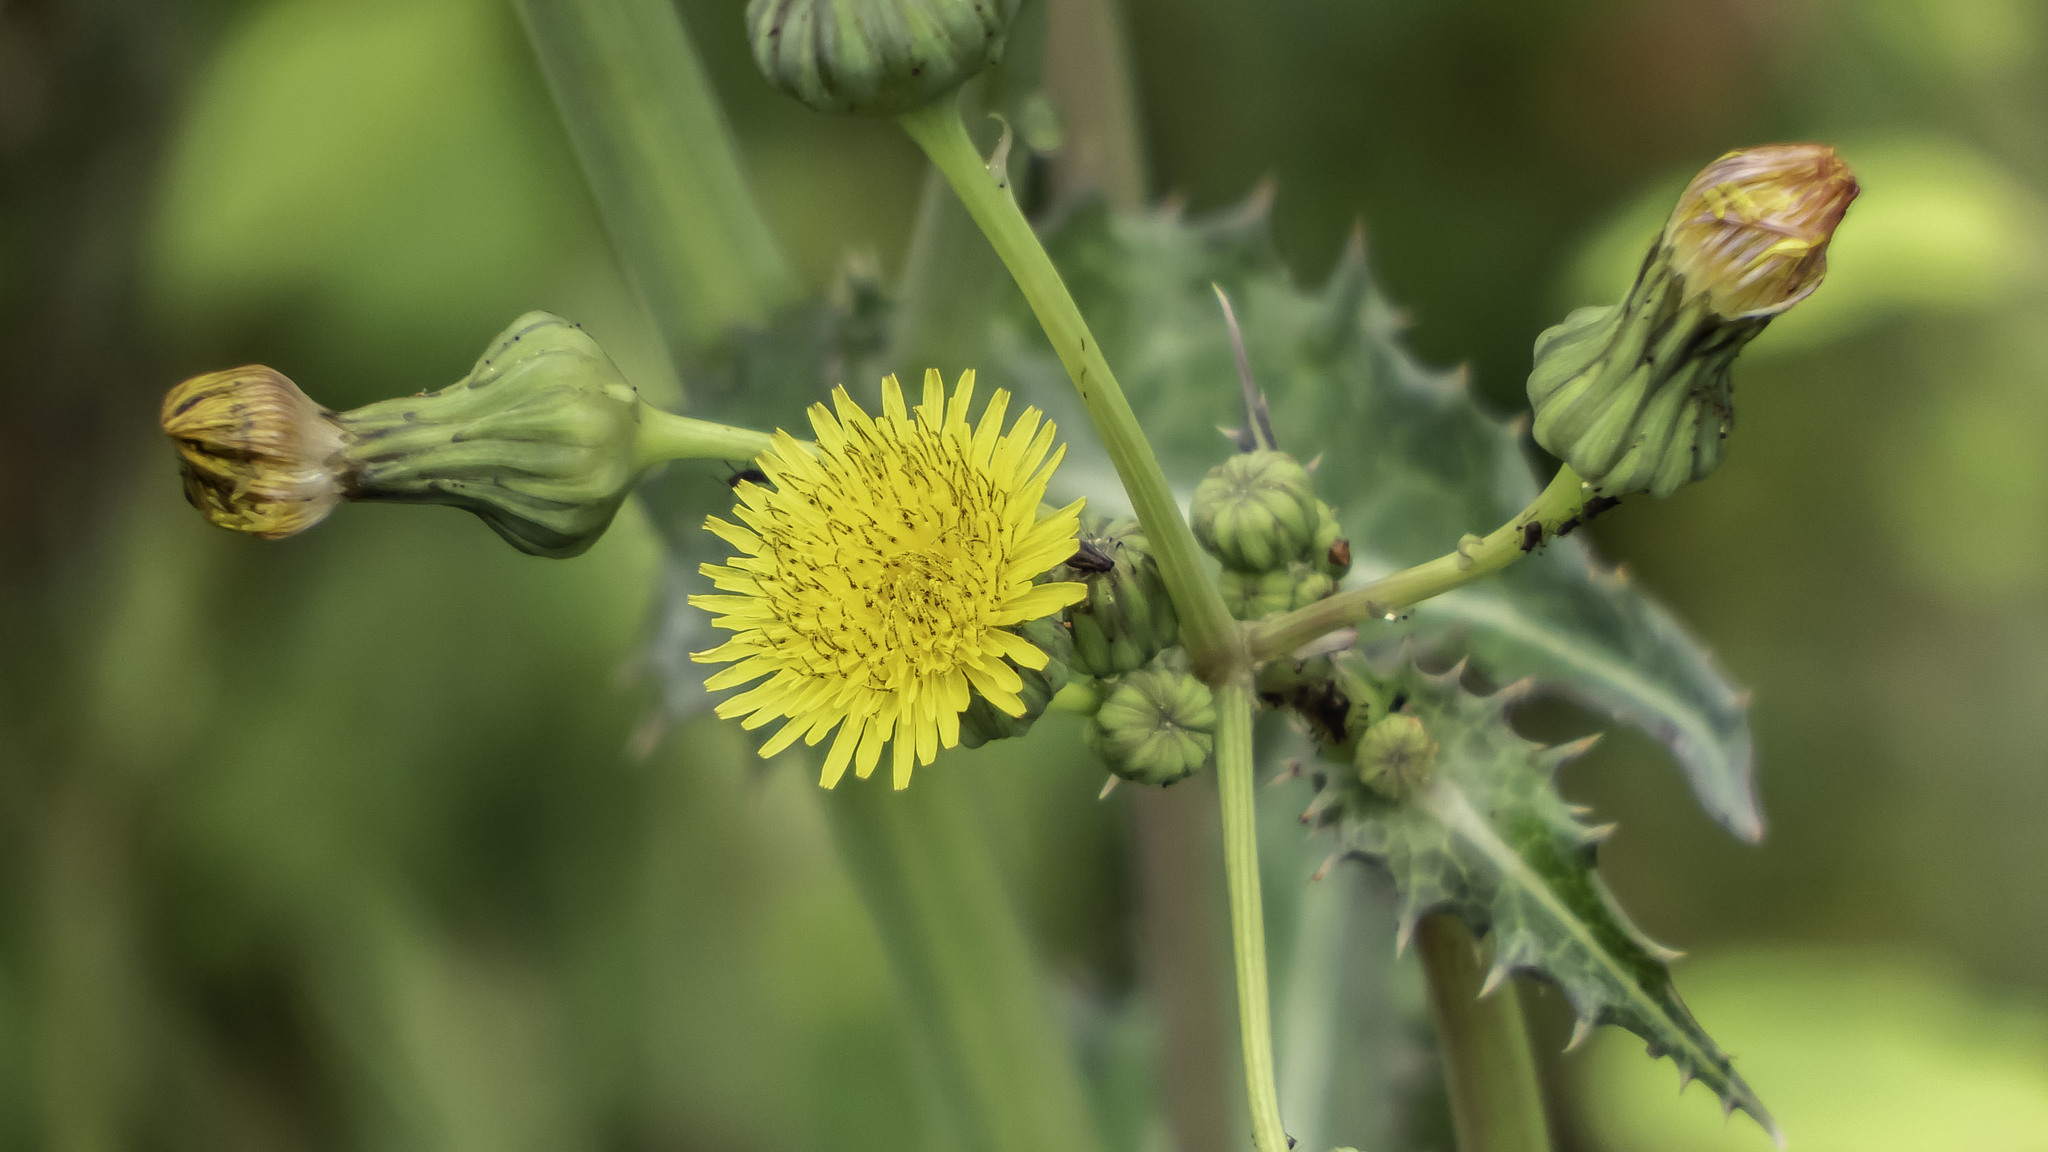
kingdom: Plantae
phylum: Tracheophyta
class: Magnoliopsida
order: Asterales
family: Asteraceae
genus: Sonchus
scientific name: Sonchus asper
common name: Prickly sow-thistle
